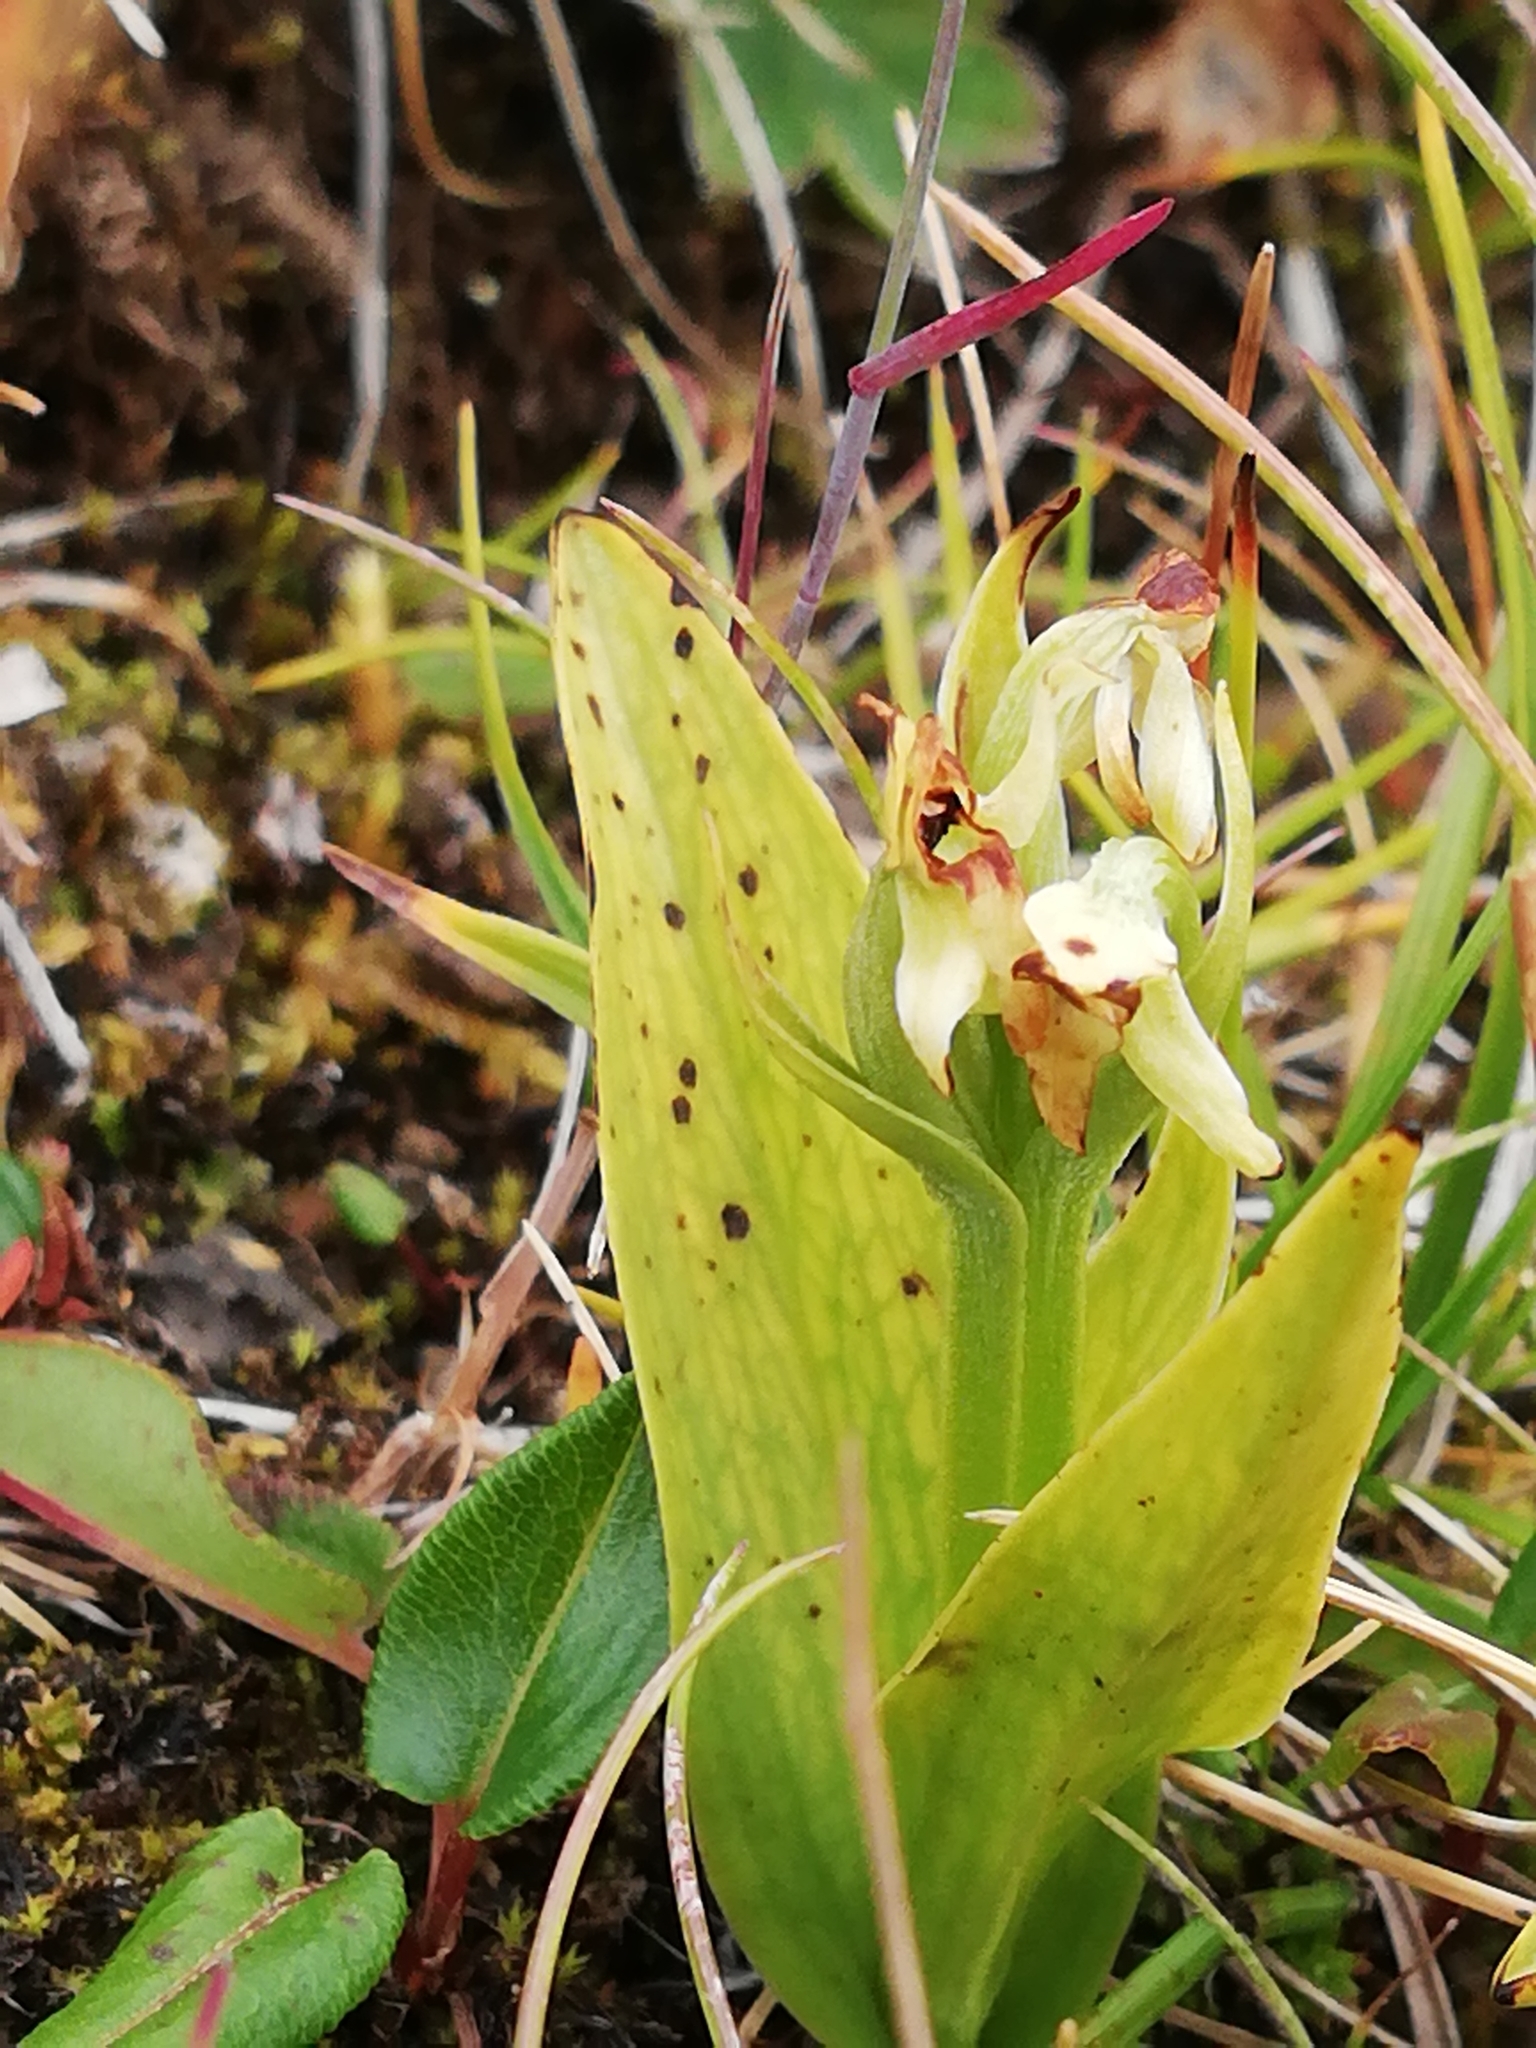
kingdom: Plantae
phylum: Tracheophyta
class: Liliopsida
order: Asparagales
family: Orchidaceae
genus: Platanthera
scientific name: Platanthera hyperborea
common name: Northern green orchid
